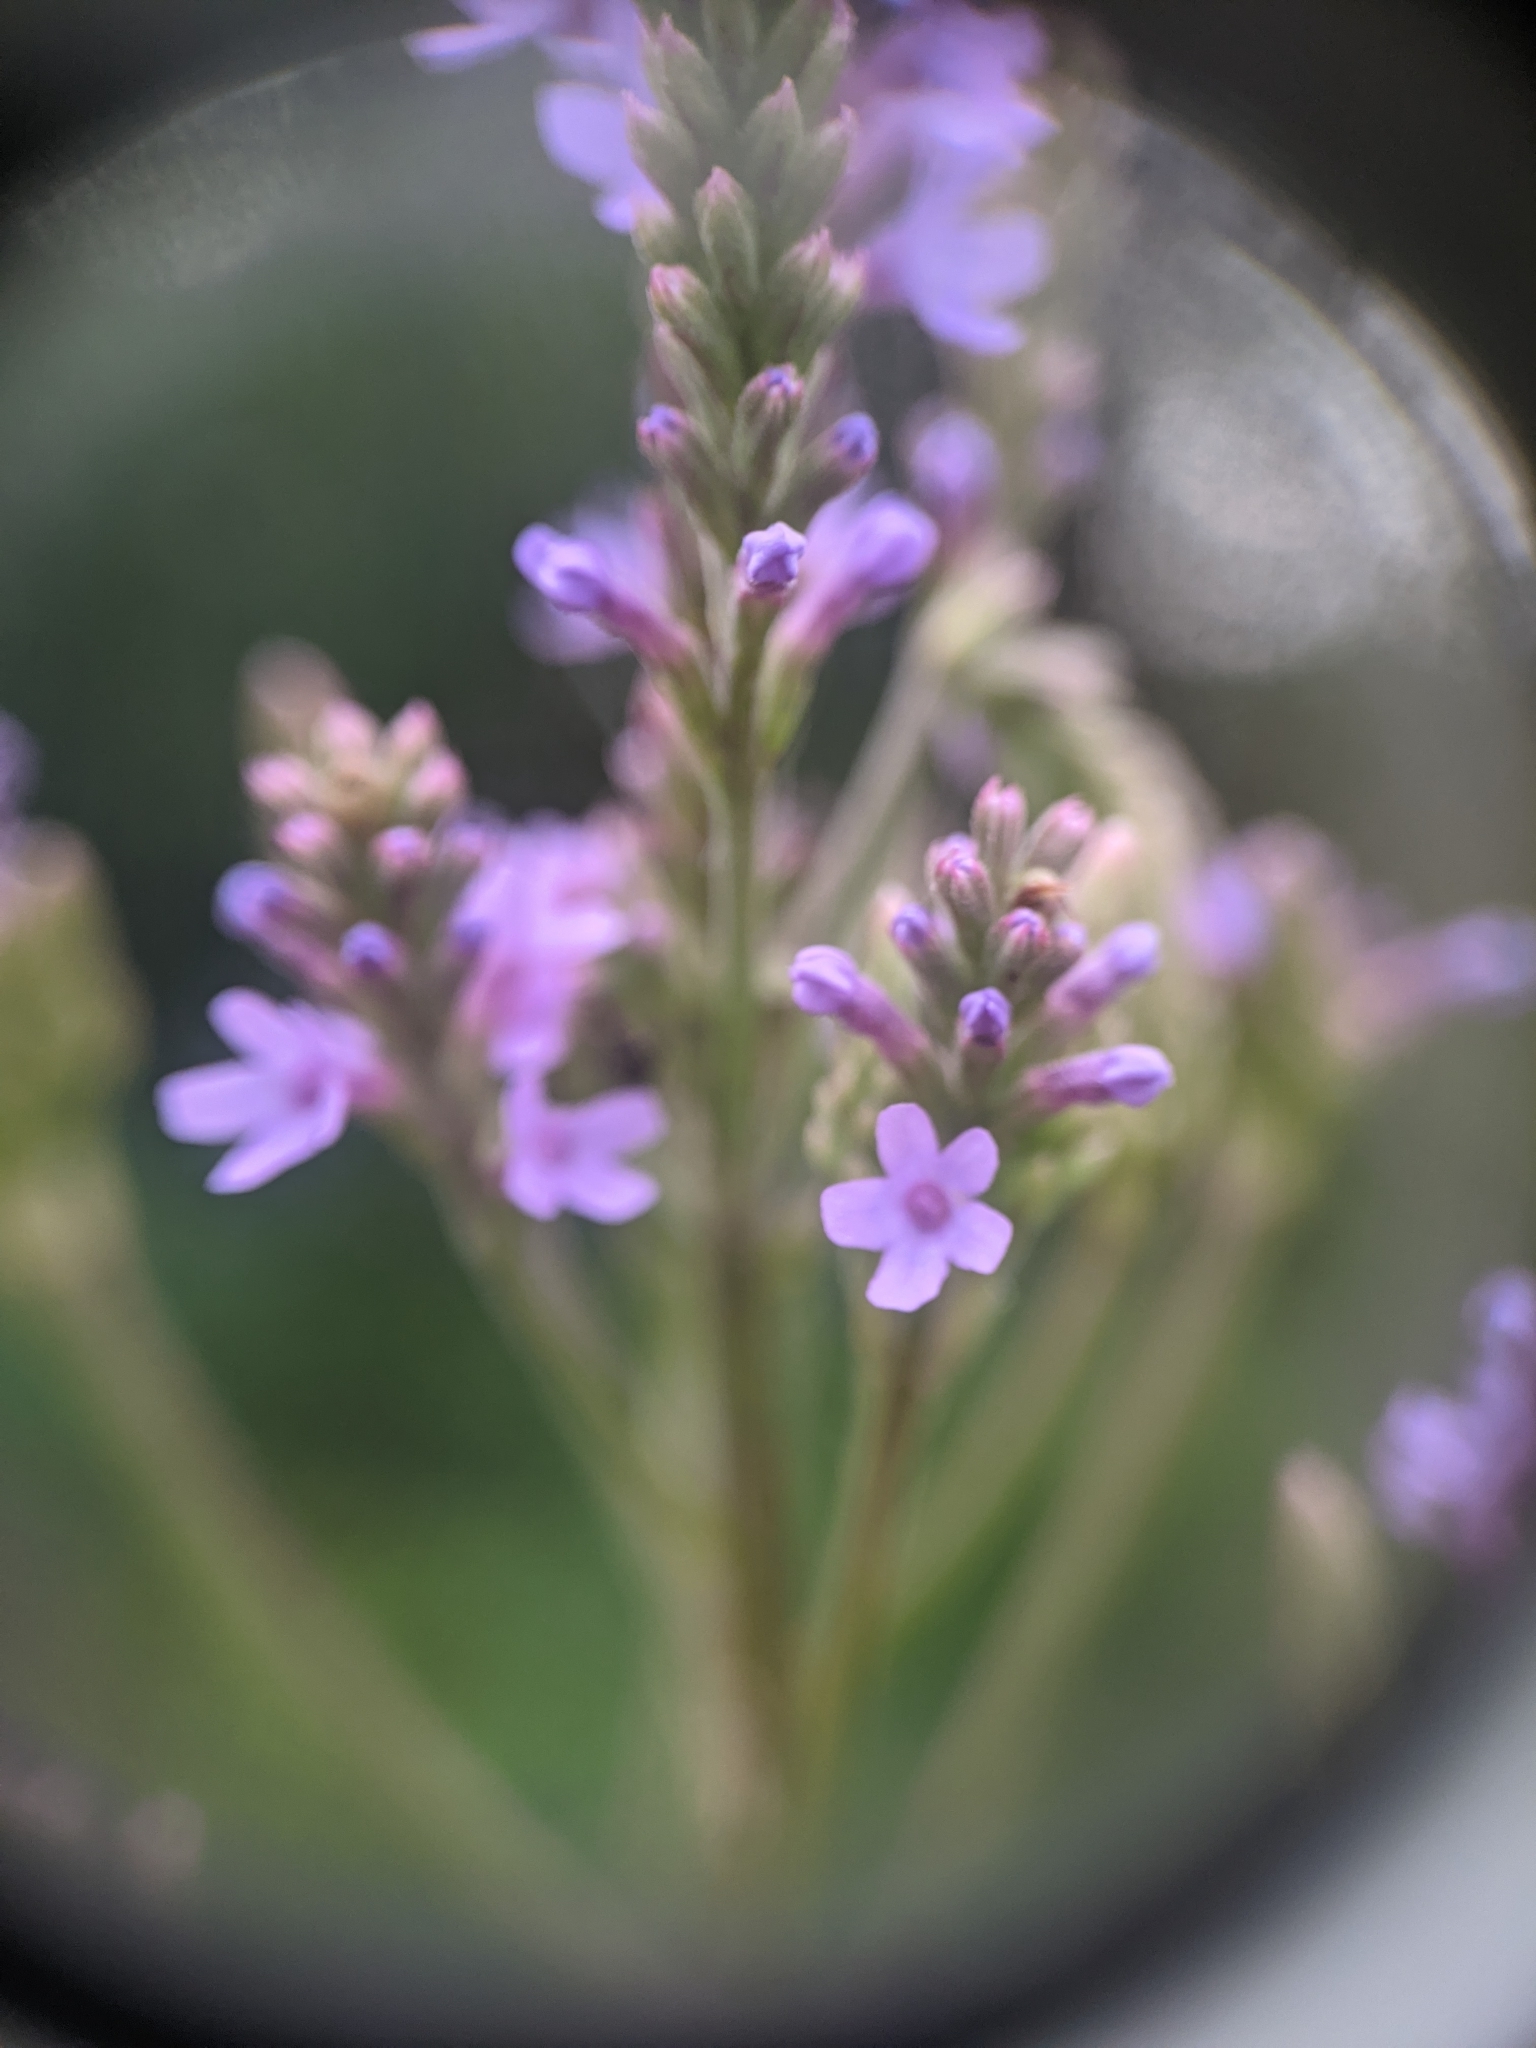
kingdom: Plantae
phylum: Tracheophyta
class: Magnoliopsida
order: Lamiales
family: Verbenaceae
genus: Verbena
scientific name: Verbena hastata
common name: American blue vervain
